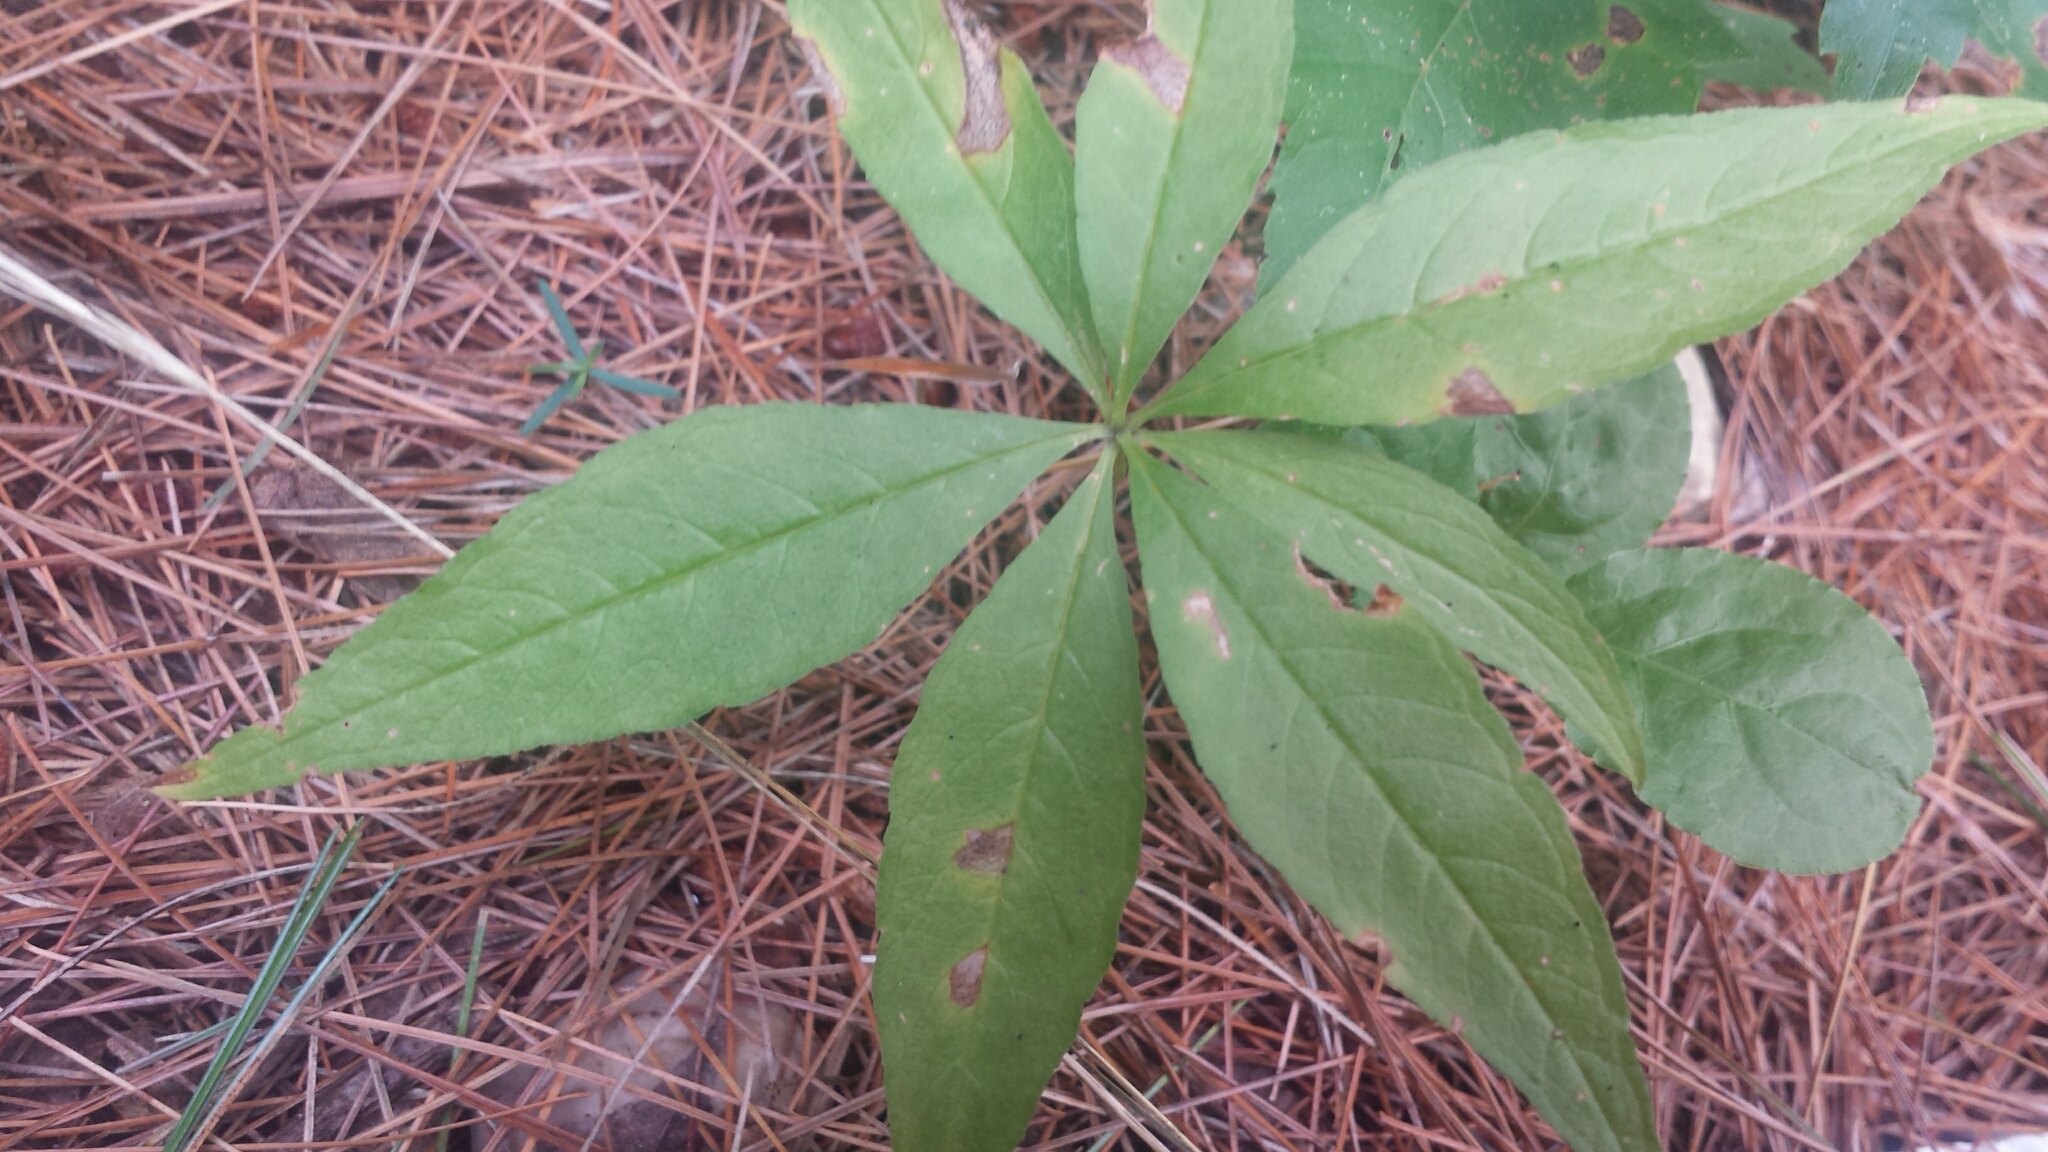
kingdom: Plantae
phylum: Tracheophyta
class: Magnoliopsida
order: Ericales
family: Primulaceae
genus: Lysimachia
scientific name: Lysimachia borealis
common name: American starflower
